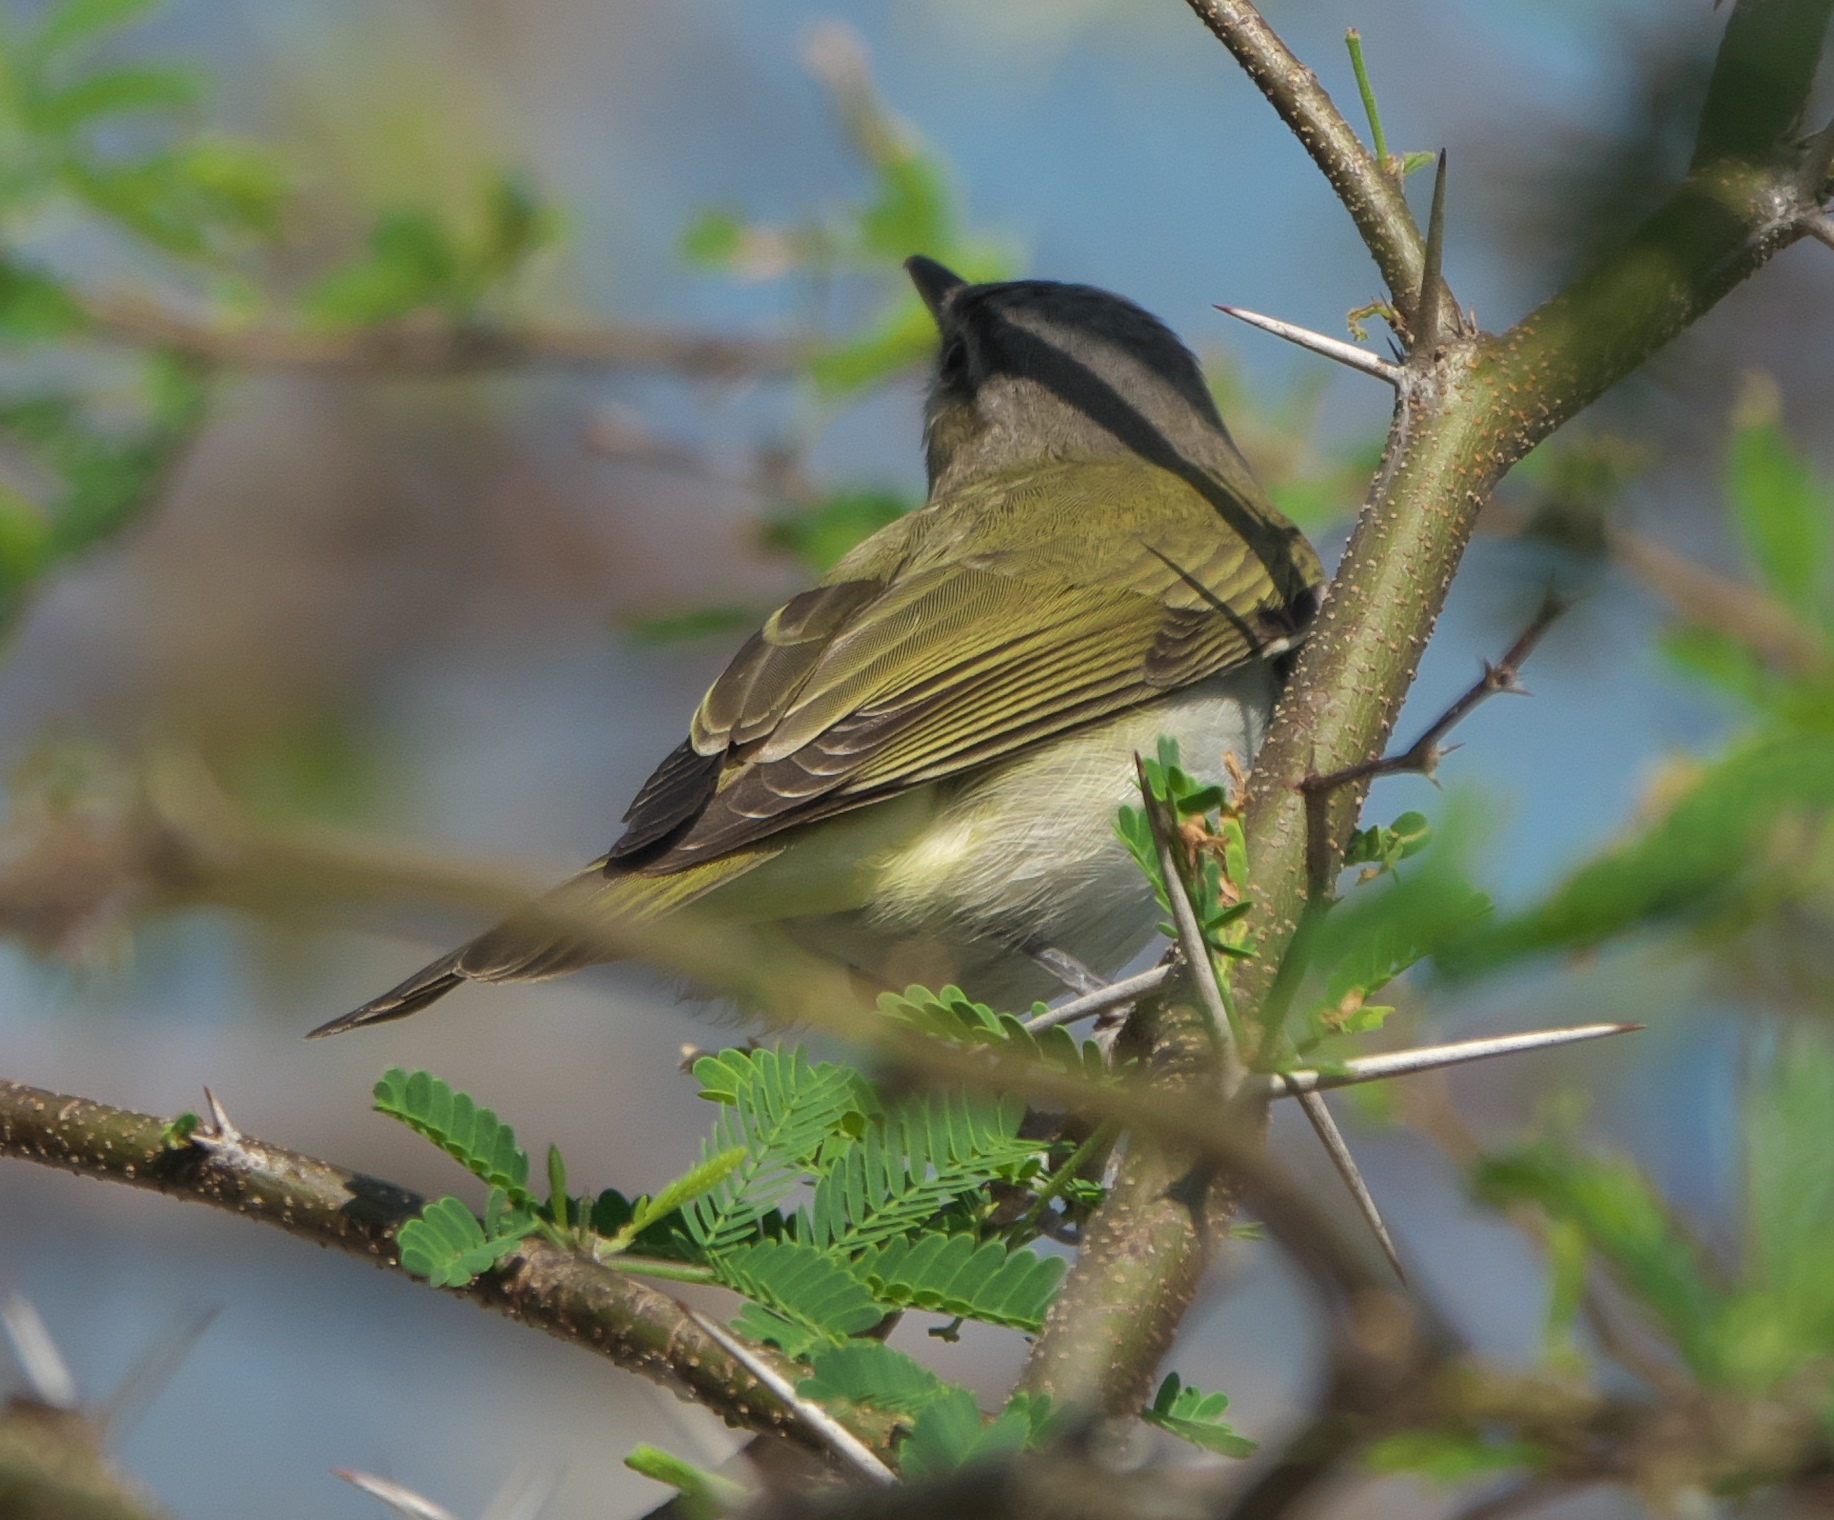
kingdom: Animalia
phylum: Chordata
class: Aves
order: Passeriformes
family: Vireonidae
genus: Vireo
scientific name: Vireo olivaceus
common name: Red-eyed vireo
